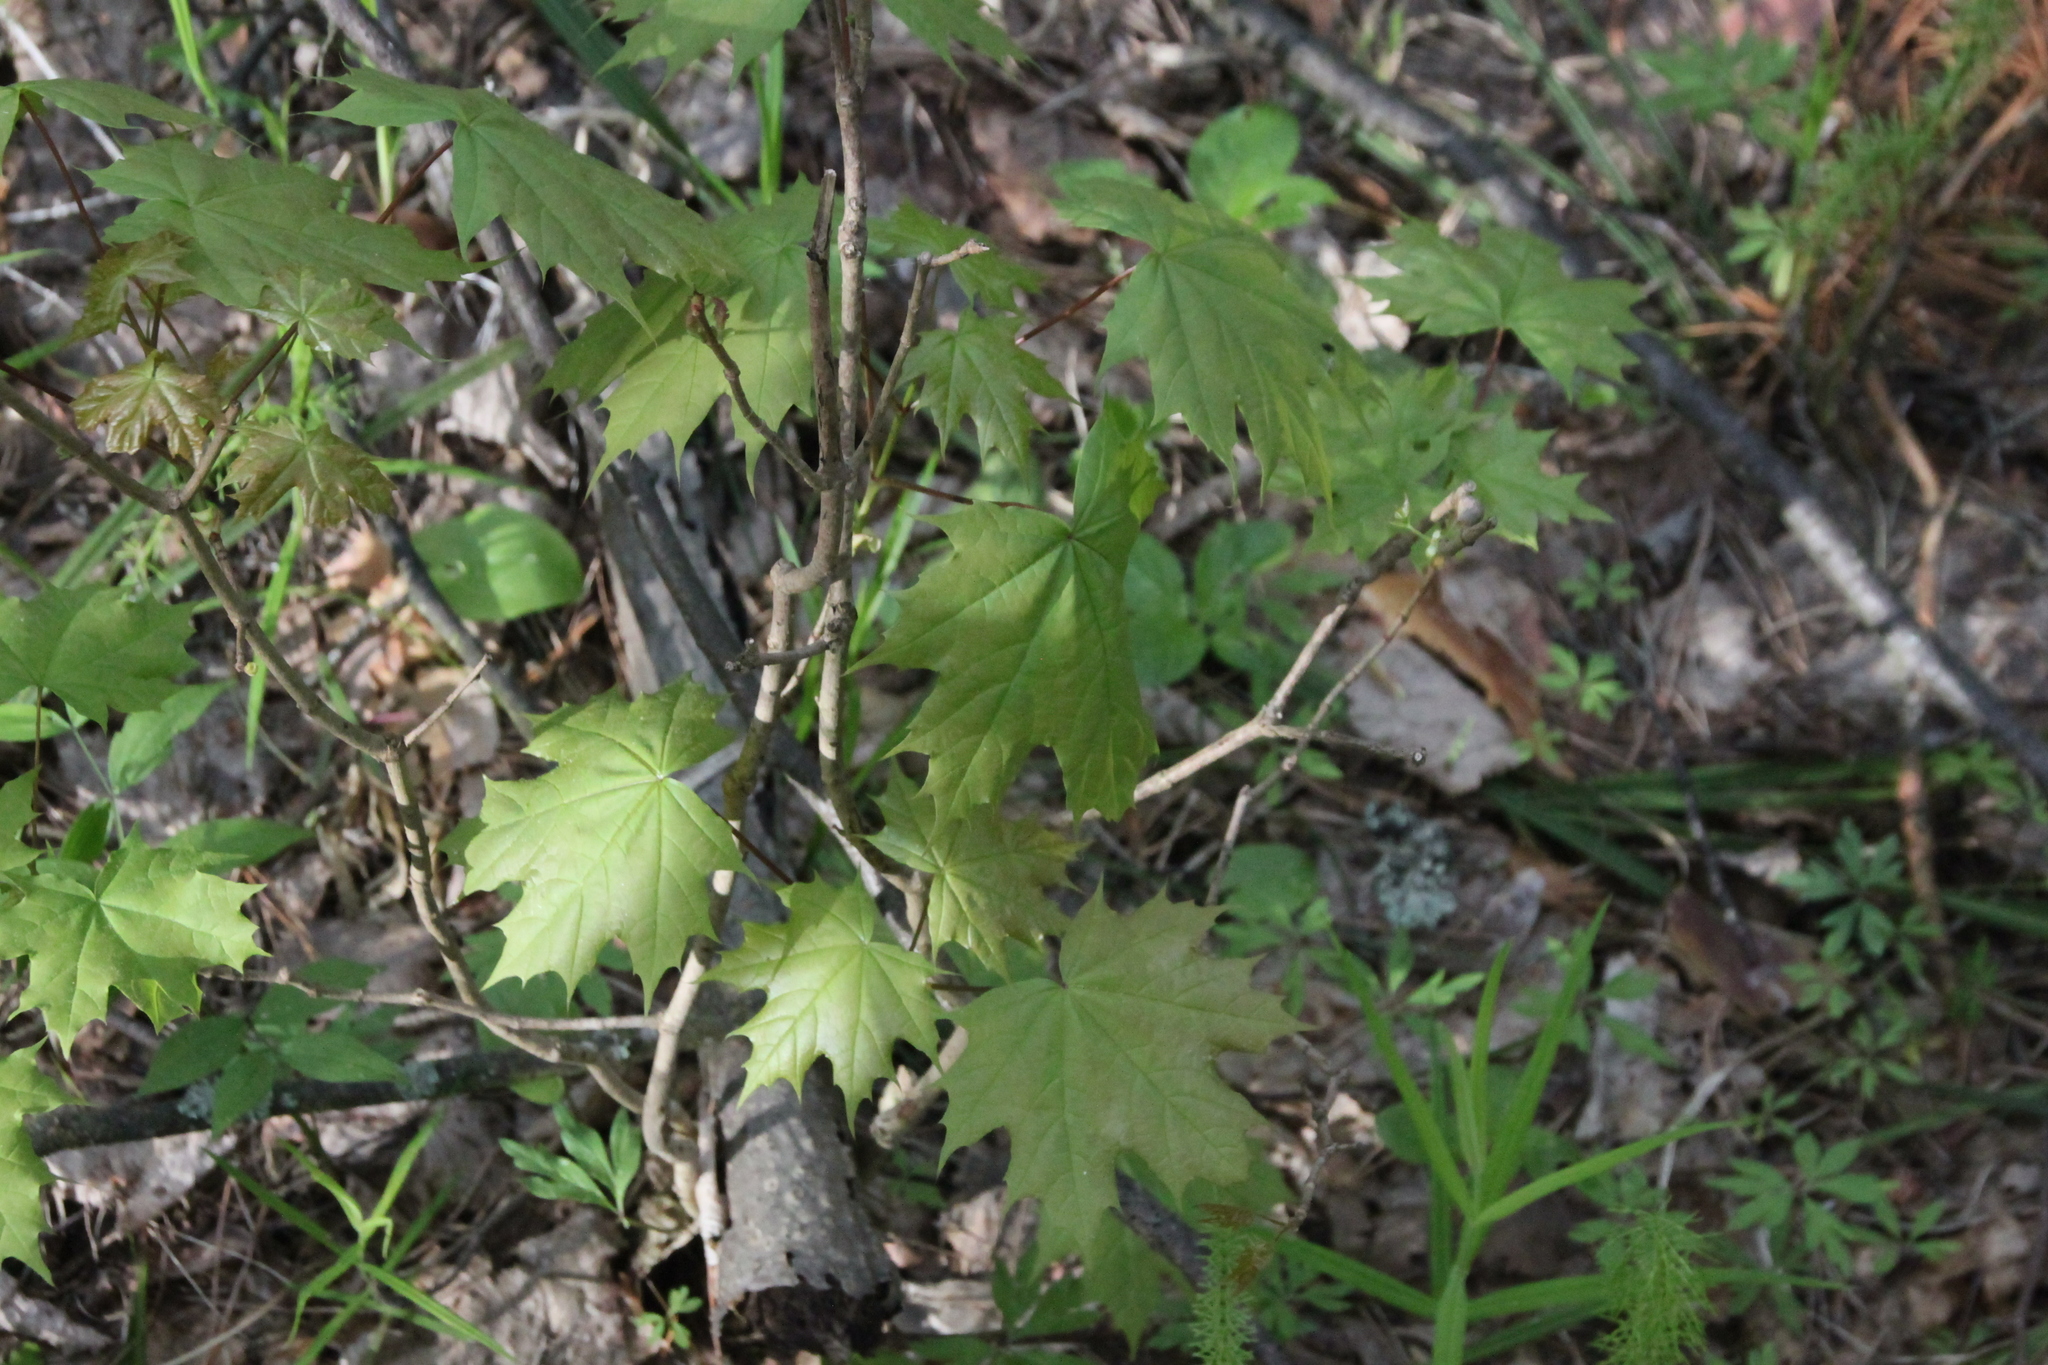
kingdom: Plantae
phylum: Tracheophyta
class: Magnoliopsida
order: Sapindales
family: Sapindaceae
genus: Acer
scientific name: Acer platanoides
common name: Norway maple
